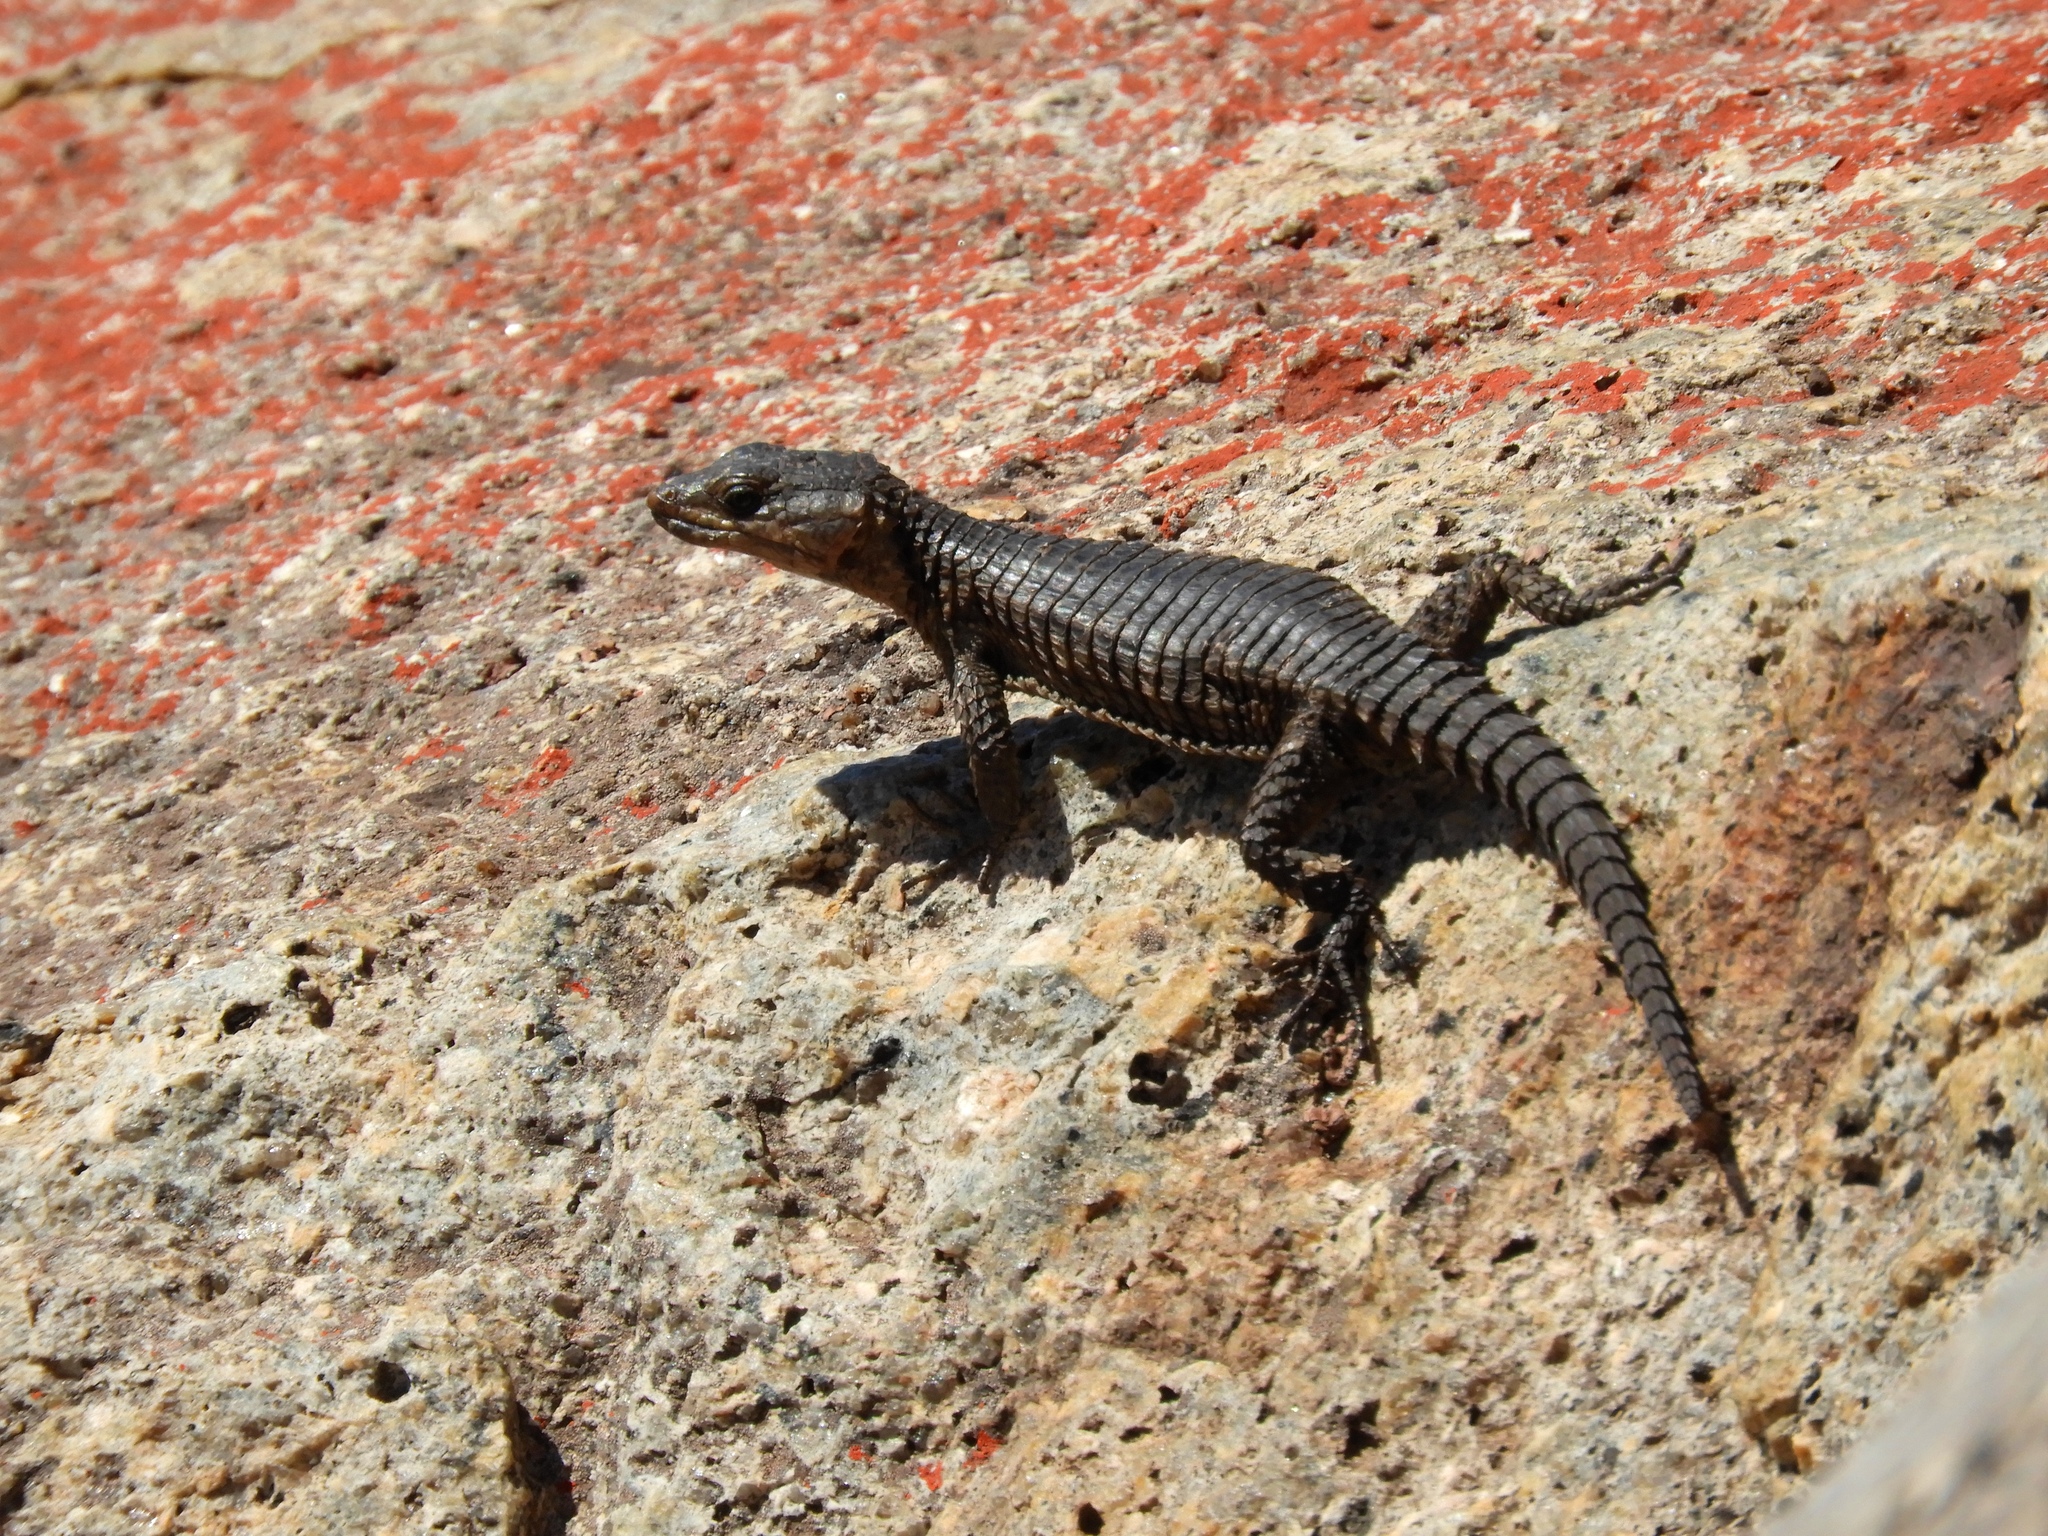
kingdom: Animalia
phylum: Chordata
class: Squamata
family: Cordylidae
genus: Cordylus
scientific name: Cordylus niger
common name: Black girdled lizard
